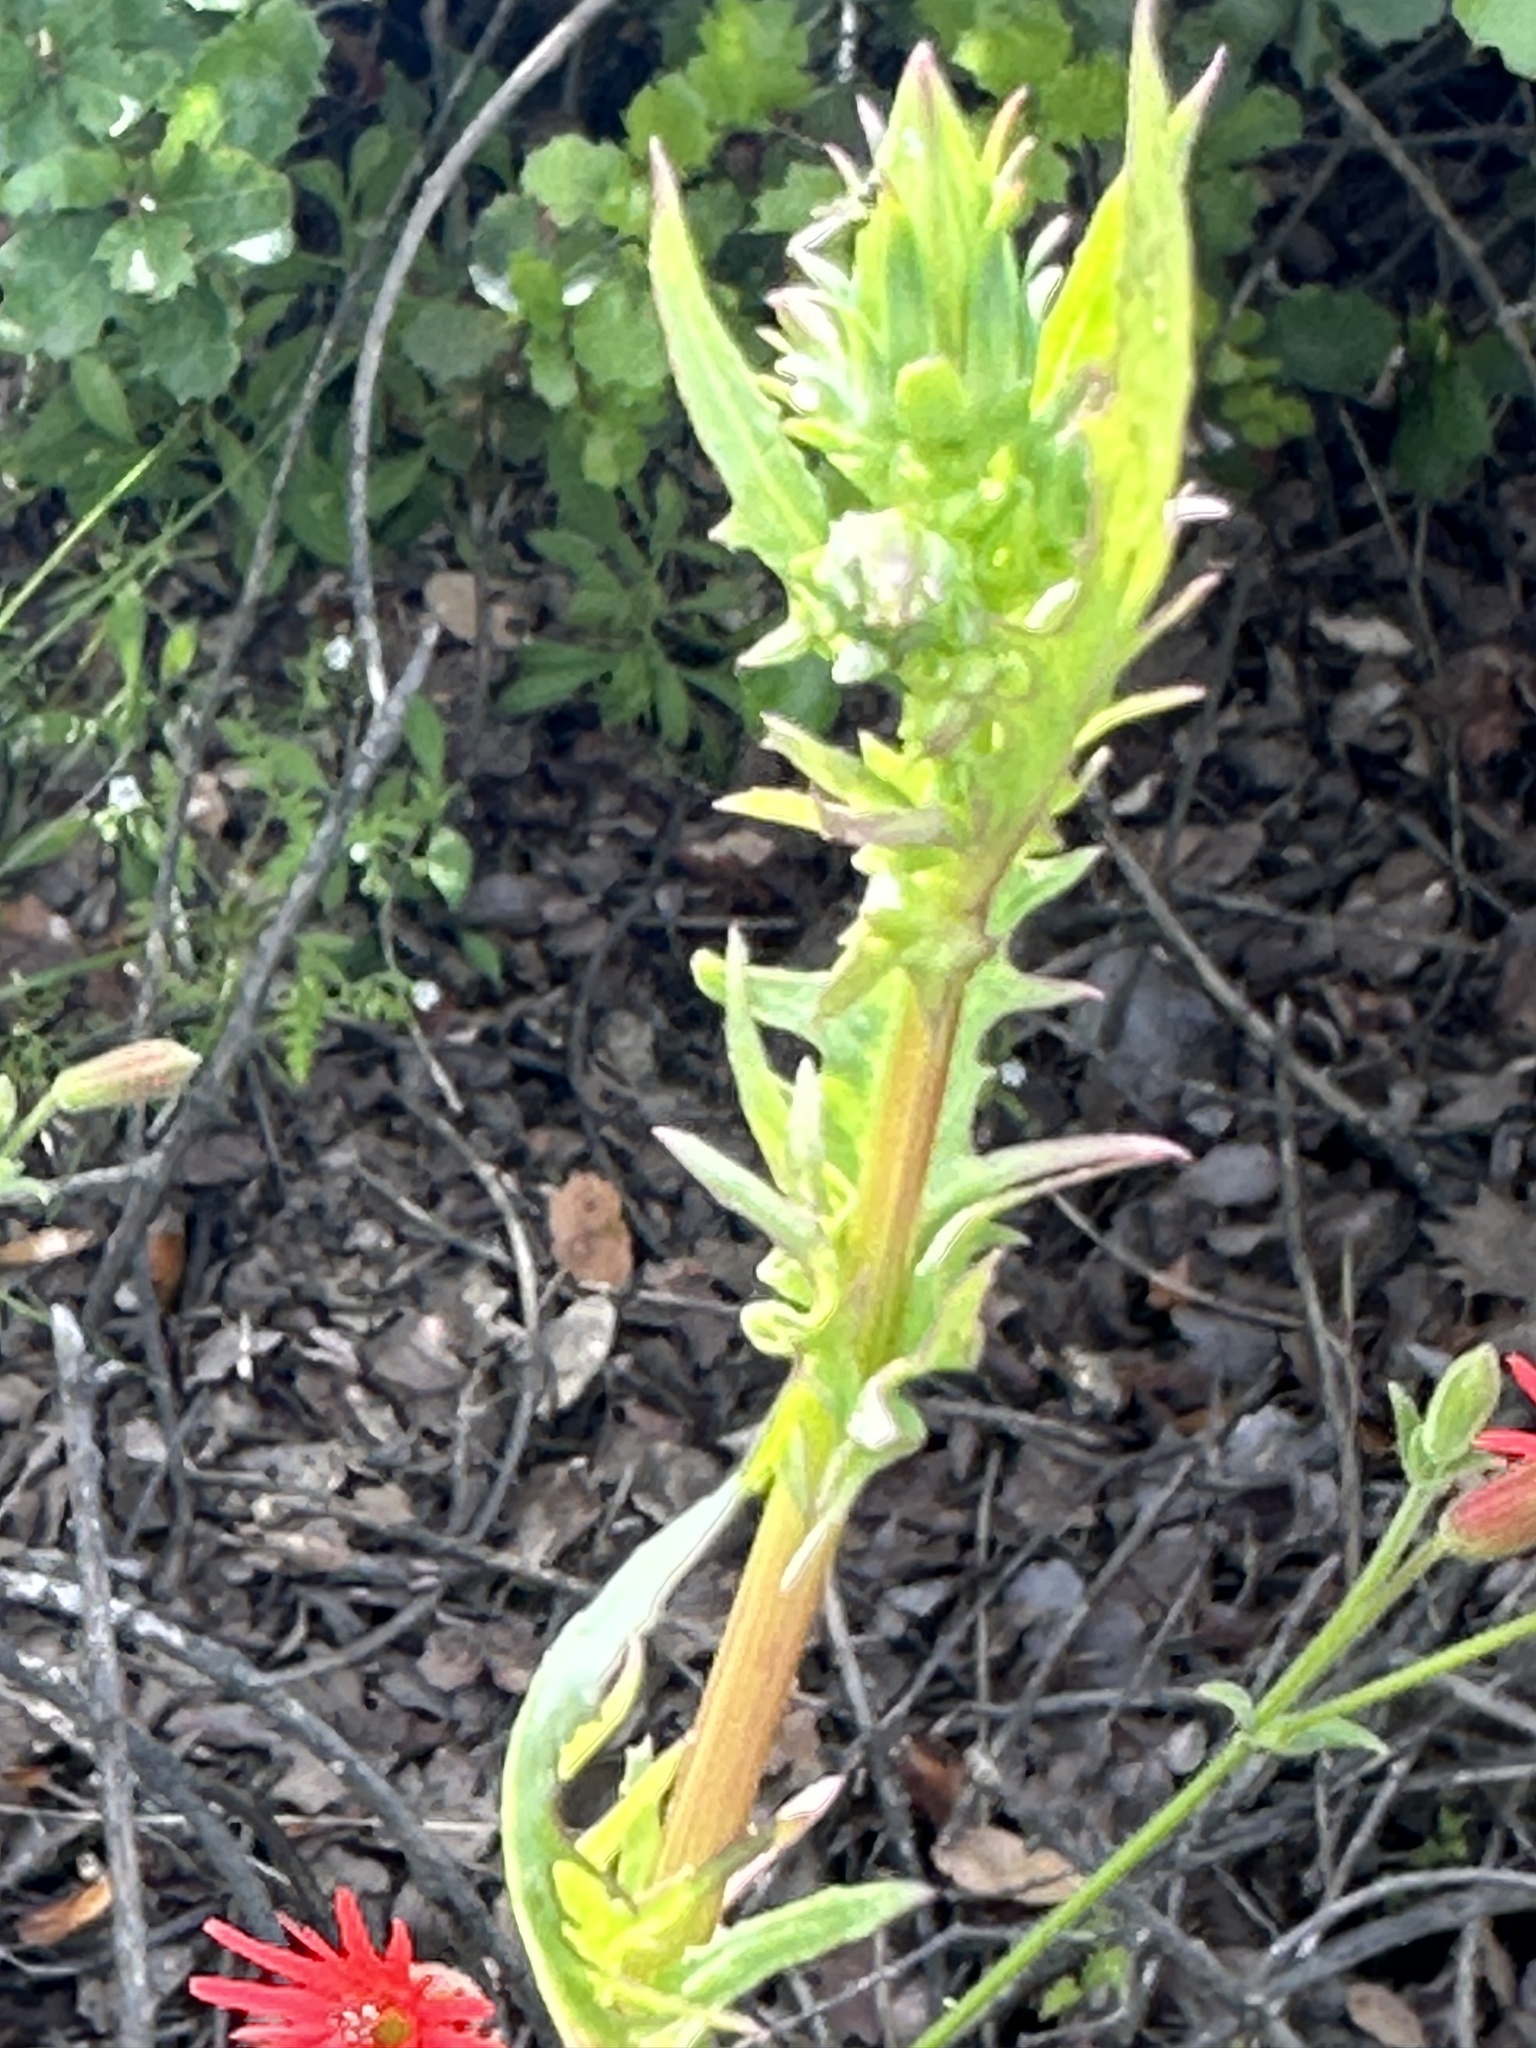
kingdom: Plantae
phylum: Tracheophyta
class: Magnoliopsida
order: Asterales
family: Asteraceae
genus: Rafinesquia
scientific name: Rafinesquia californica
